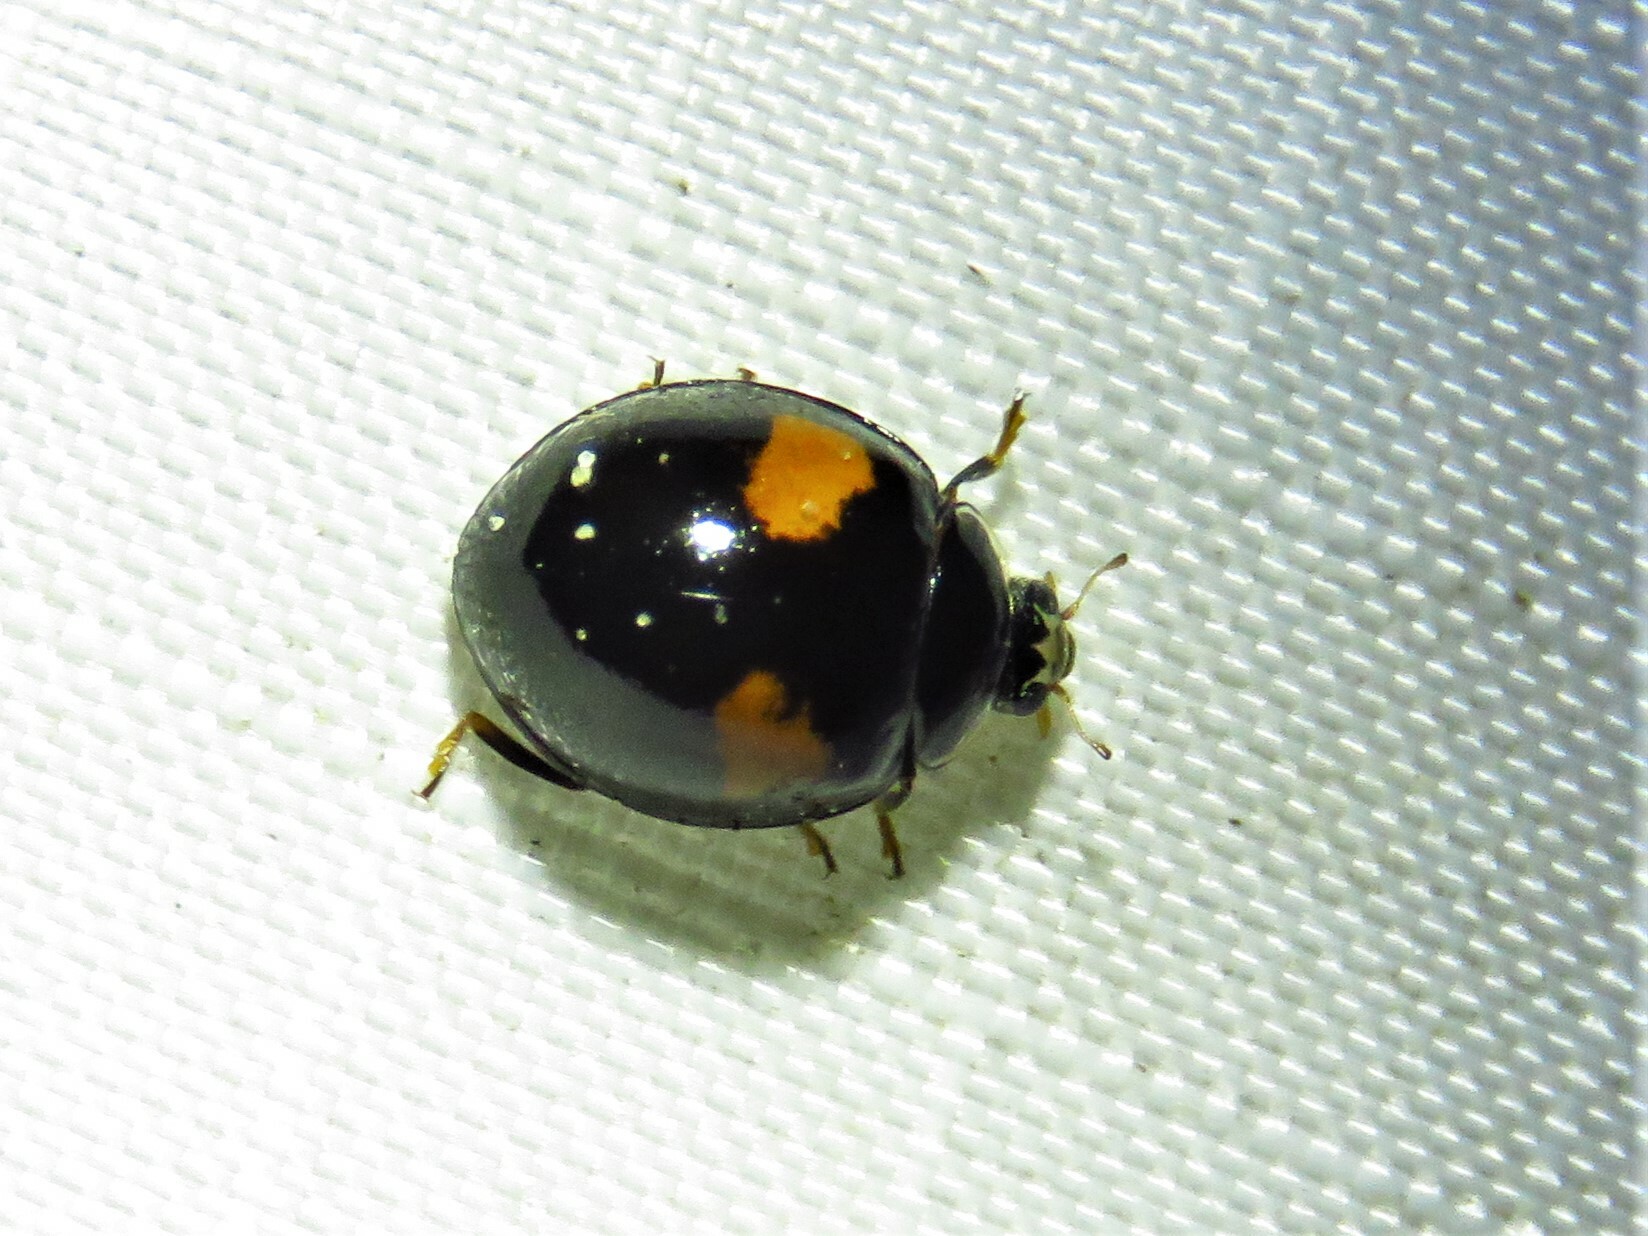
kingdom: Animalia
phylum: Arthropoda
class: Insecta
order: Coleoptera
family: Coccinellidae
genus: Olla
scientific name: Olla v-nigrum
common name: Ashy gray lady beetle
